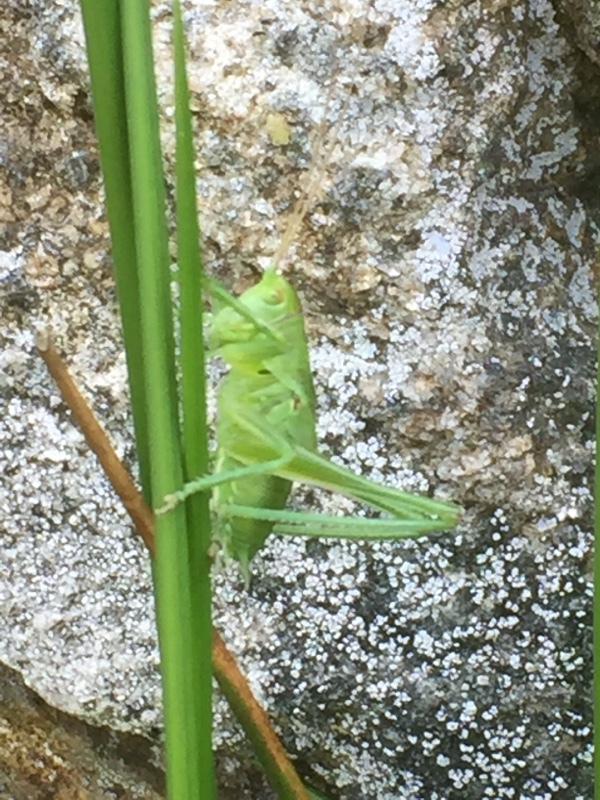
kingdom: Animalia
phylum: Arthropoda
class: Insecta
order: Orthoptera
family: Tettigoniidae
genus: Tettigonia
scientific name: Tettigonia viridissima
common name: Great green bush-cricket
